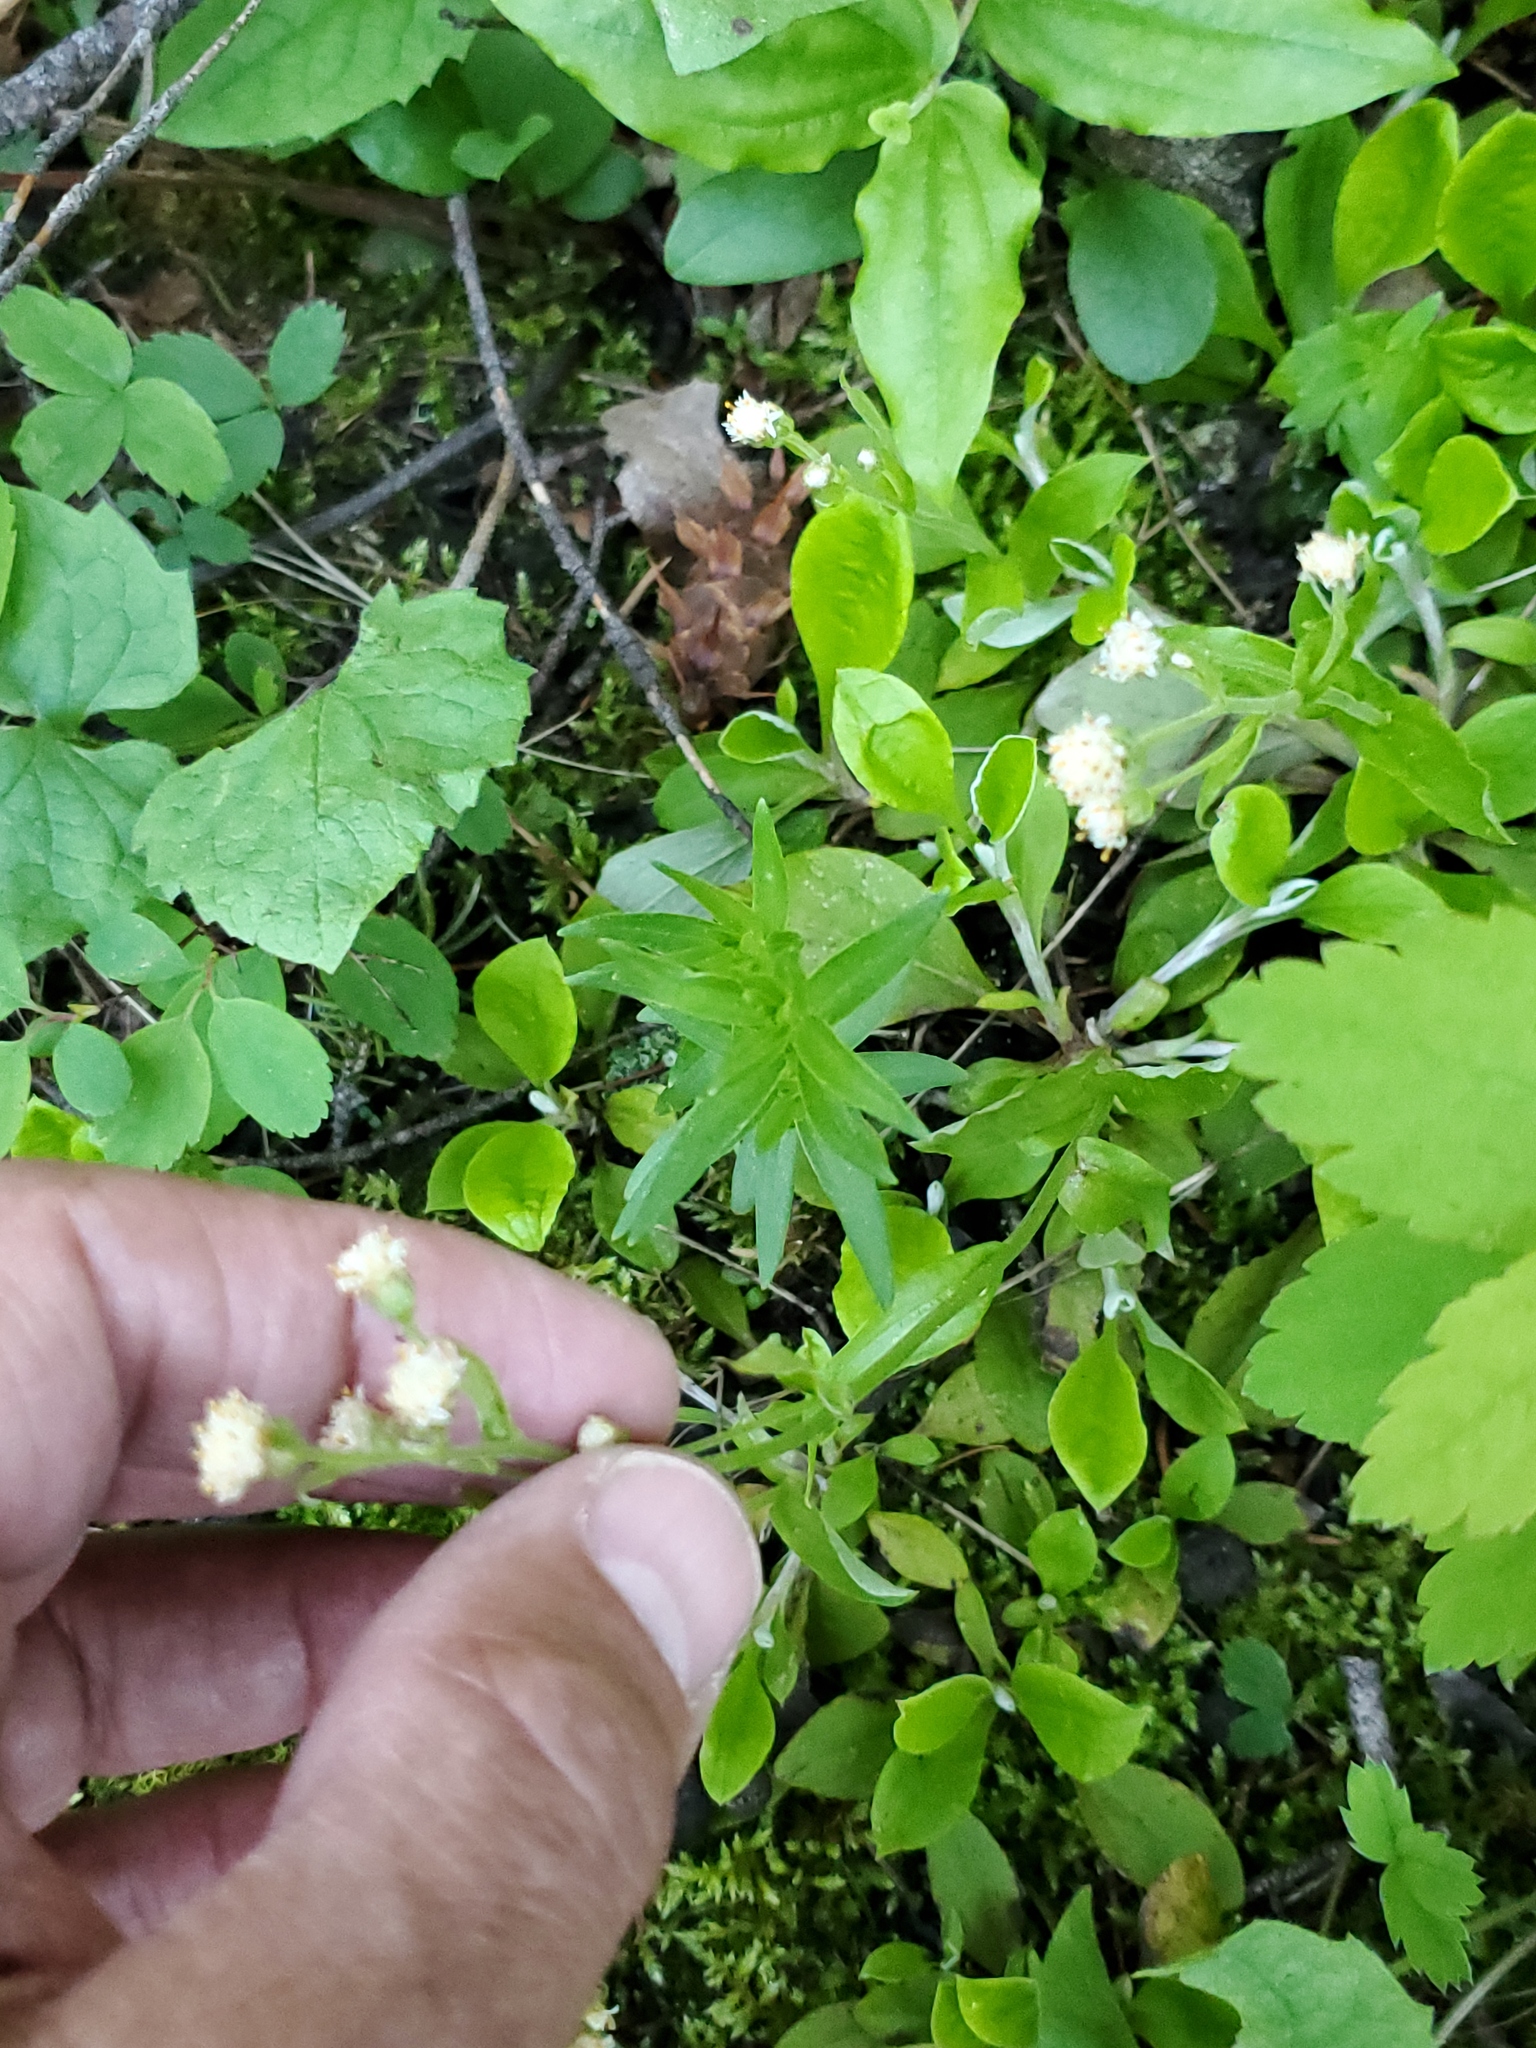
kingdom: Plantae
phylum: Tracheophyta
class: Magnoliopsida
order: Asterales
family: Asteraceae
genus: Antennaria
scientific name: Antennaria racemosa
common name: Racemose pussytoes
